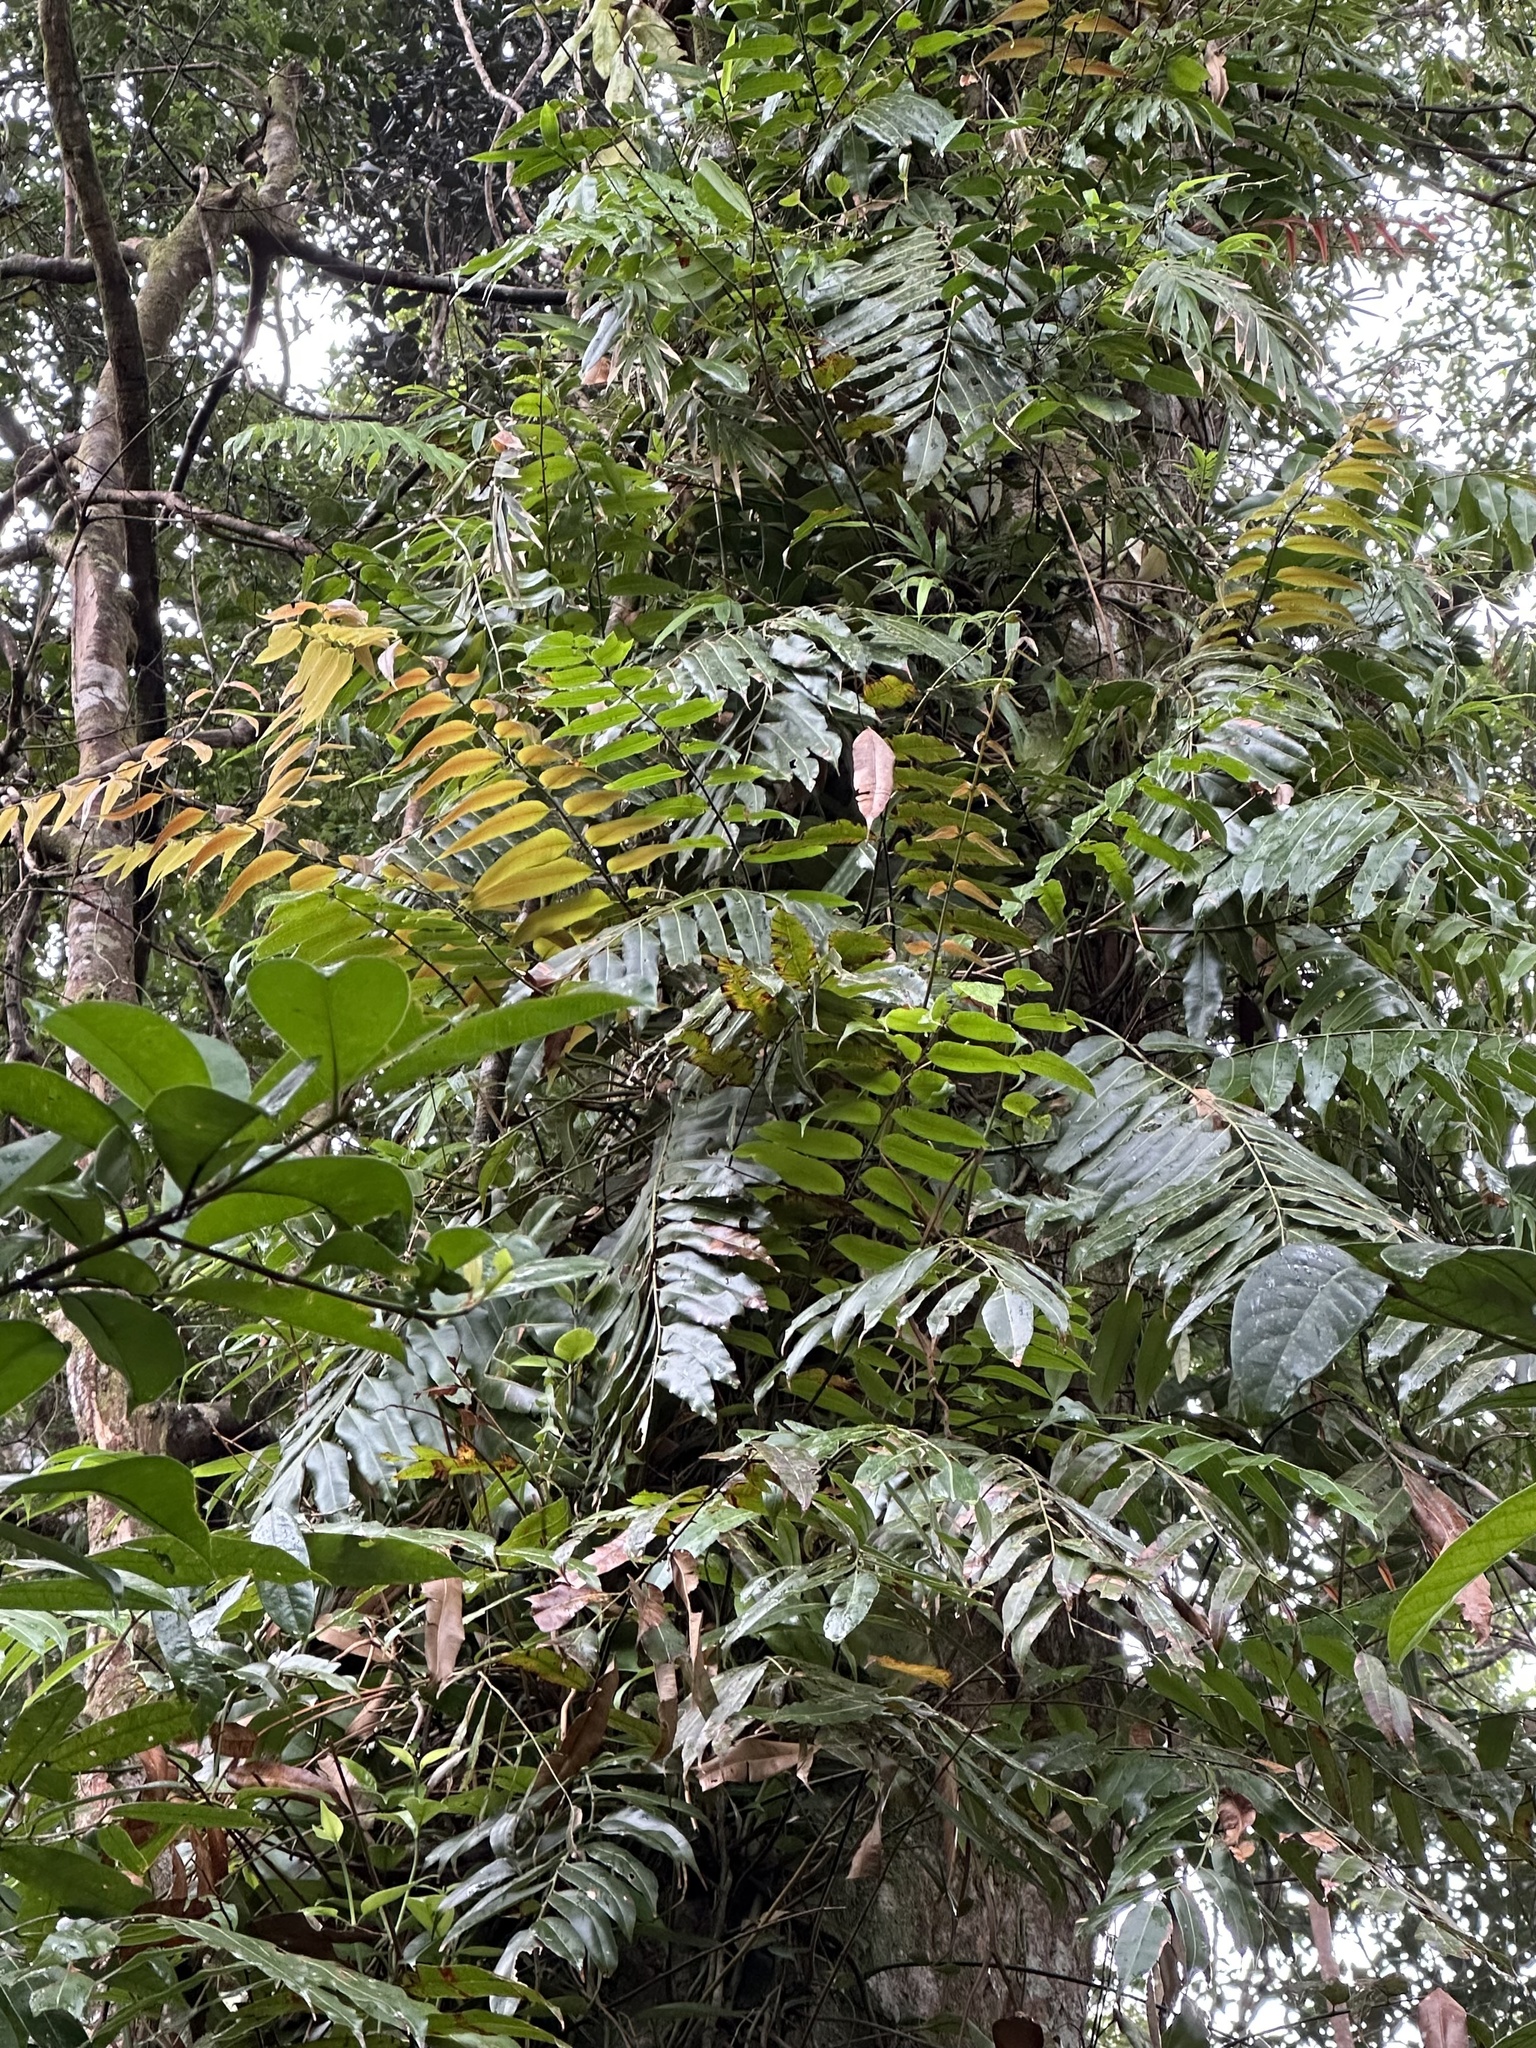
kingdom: Plantae
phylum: Tracheophyta
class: Polypodiopsida
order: Polypodiales
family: Blechnaceae
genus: Stenochlaena
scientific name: Stenochlaena palustris
